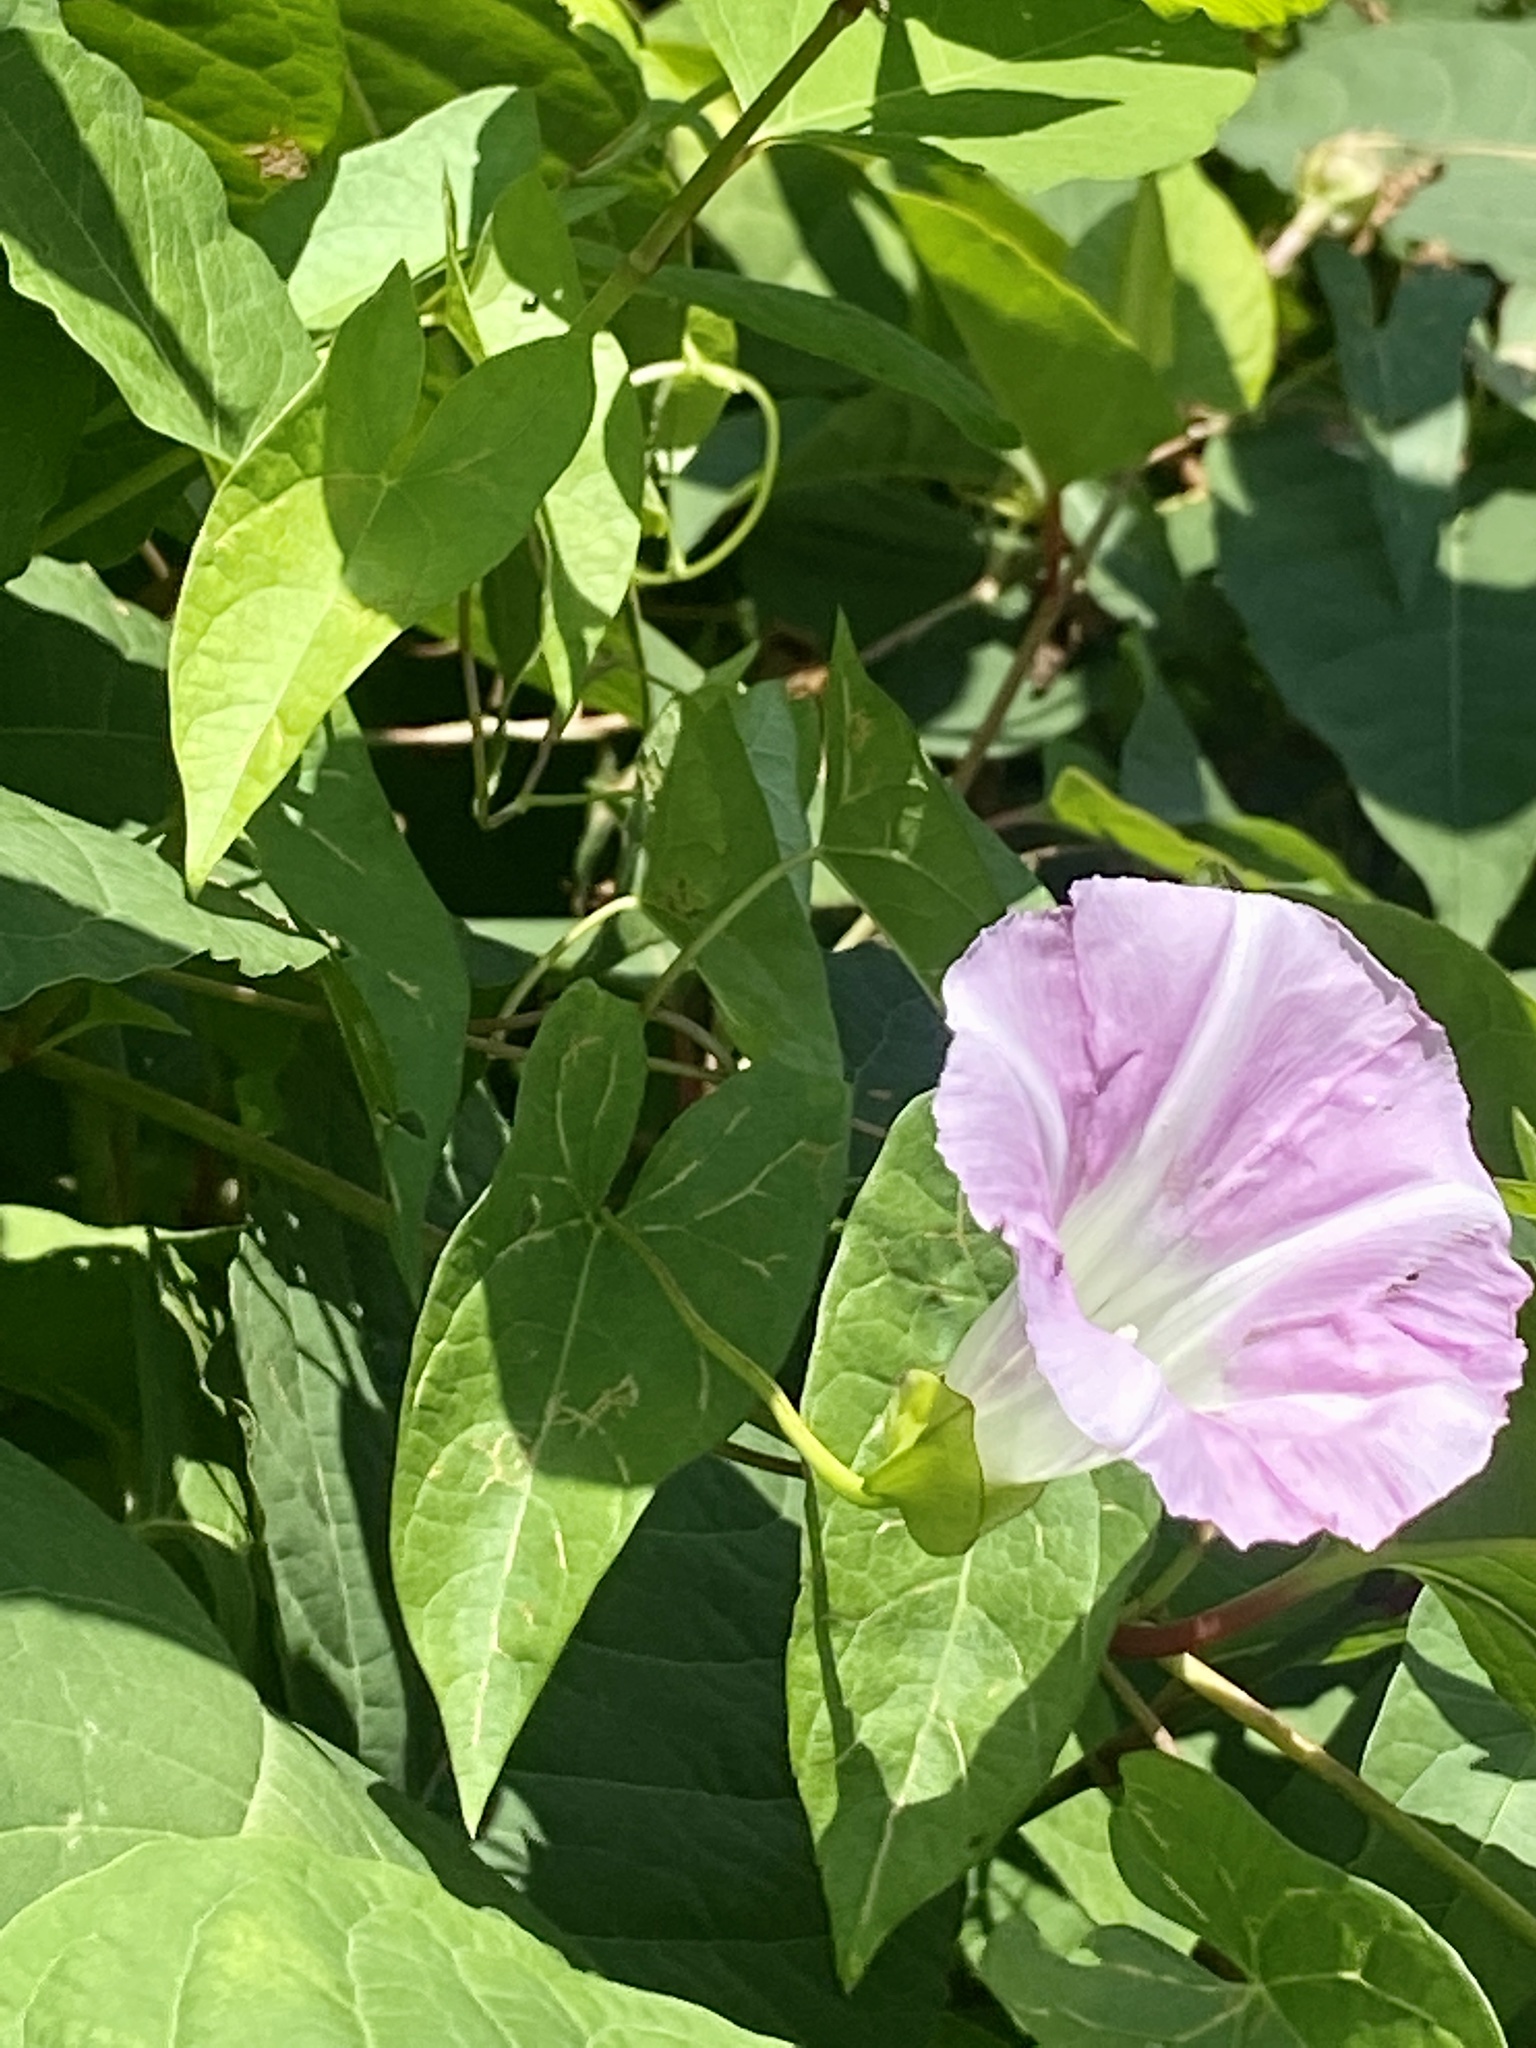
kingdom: Plantae
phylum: Tracheophyta
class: Magnoliopsida
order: Solanales
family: Convolvulaceae
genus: Calystegia
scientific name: Calystegia sepium
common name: Hedge bindweed
